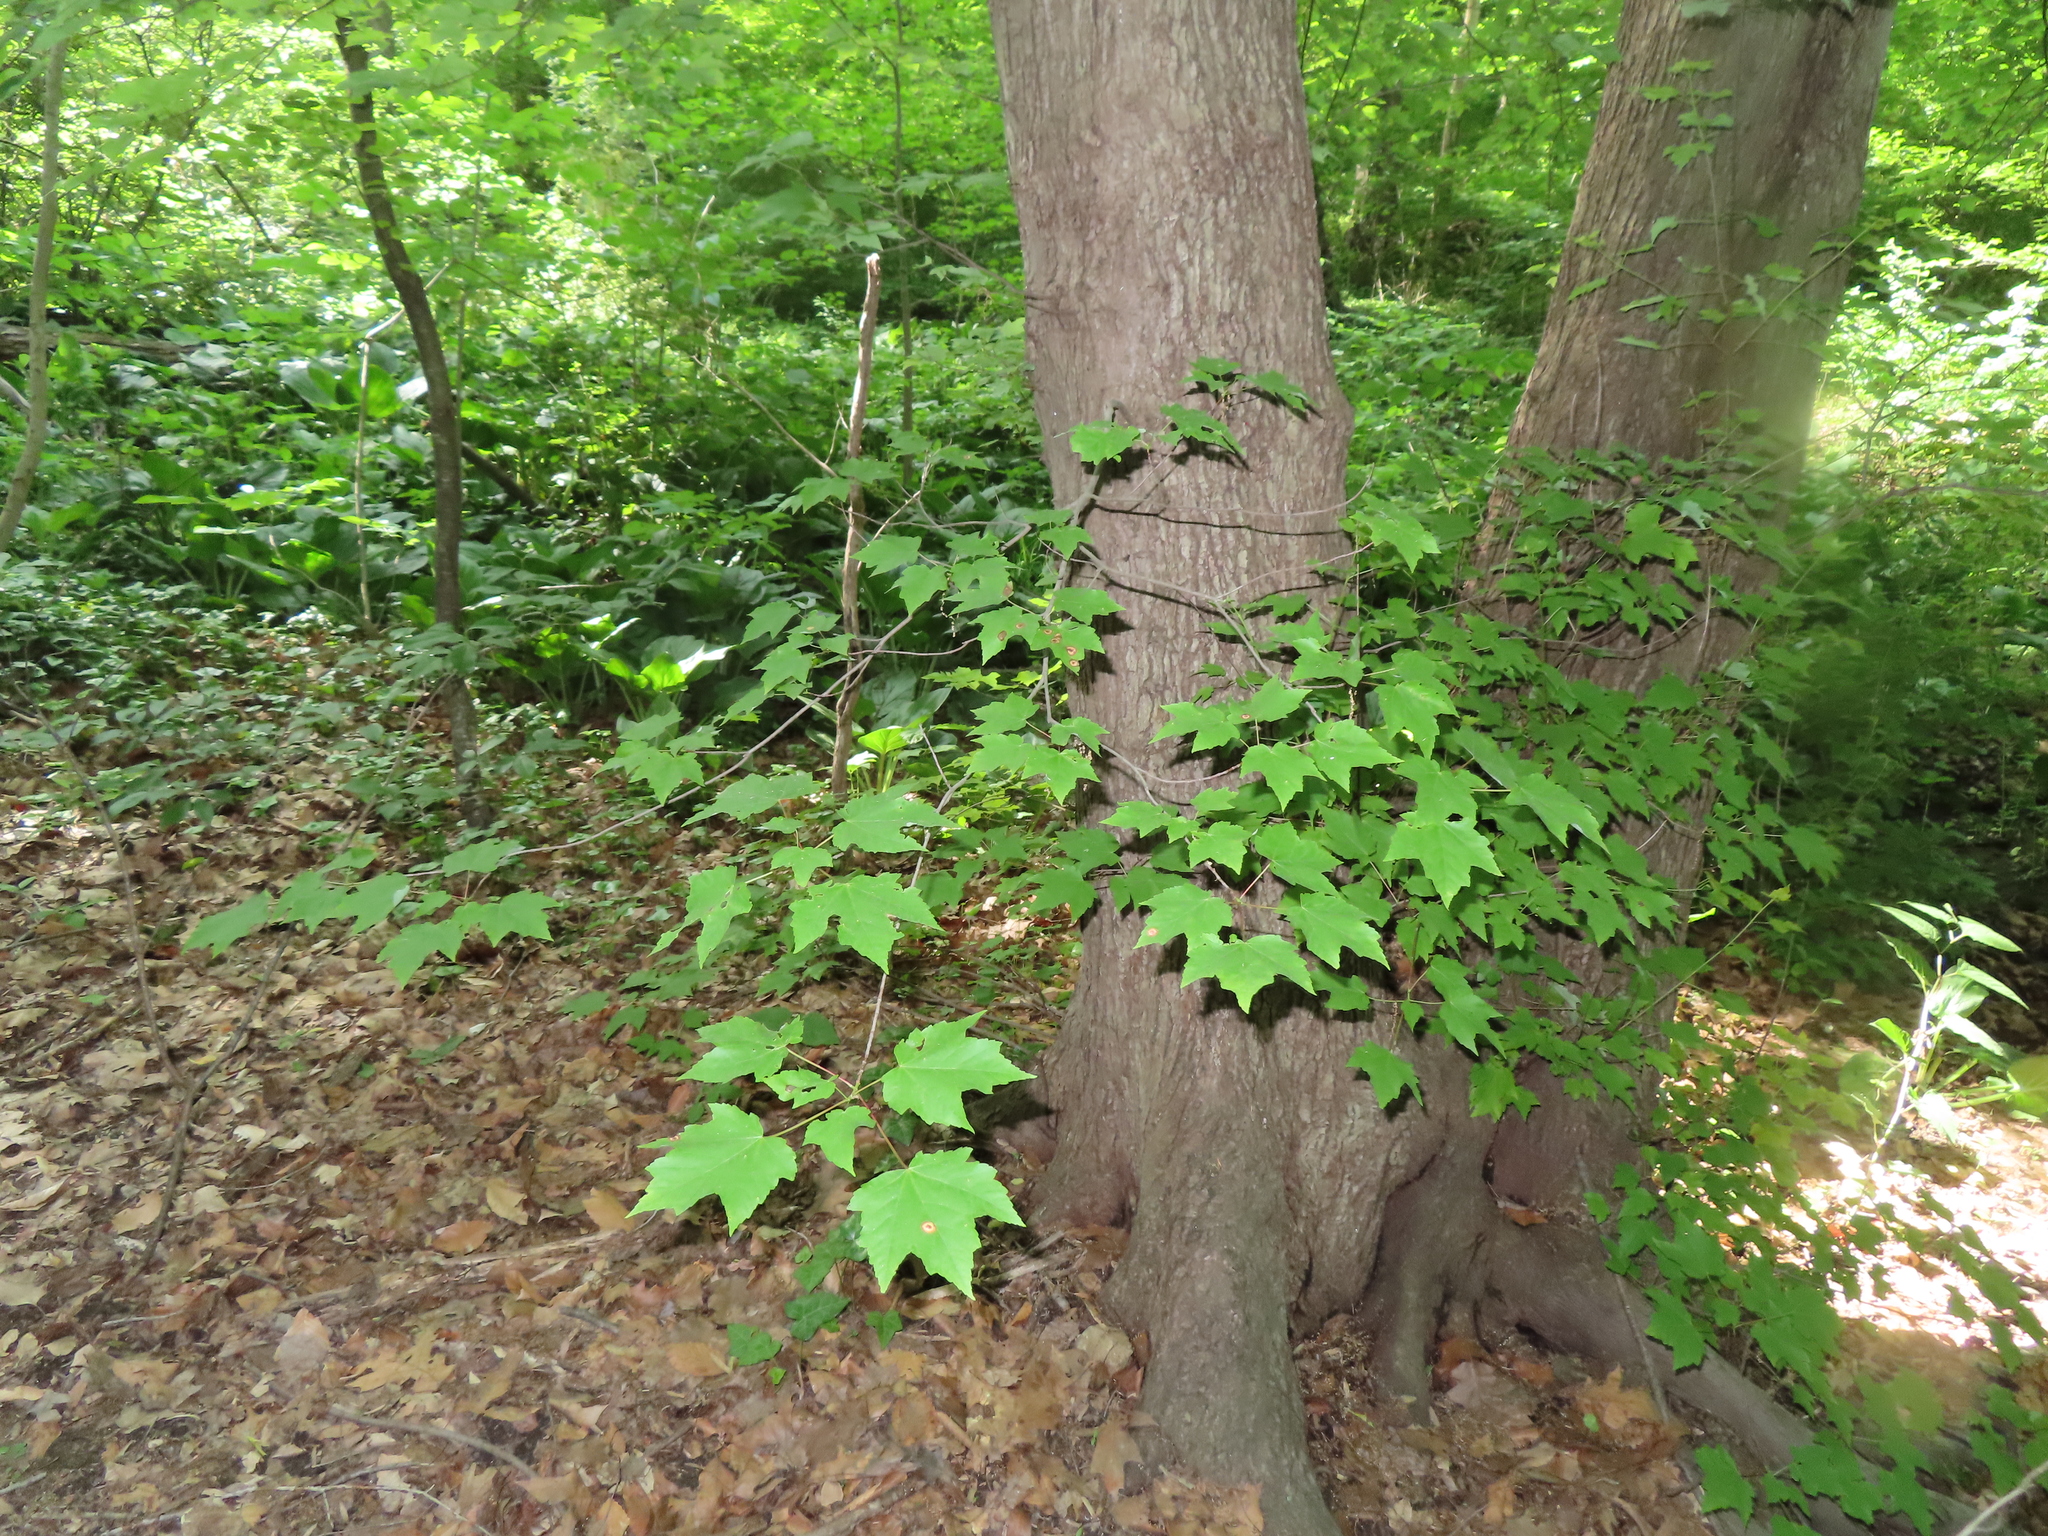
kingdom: Plantae
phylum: Tracheophyta
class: Magnoliopsida
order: Sapindales
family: Sapindaceae
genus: Acer
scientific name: Acer rubrum
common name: Red maple
